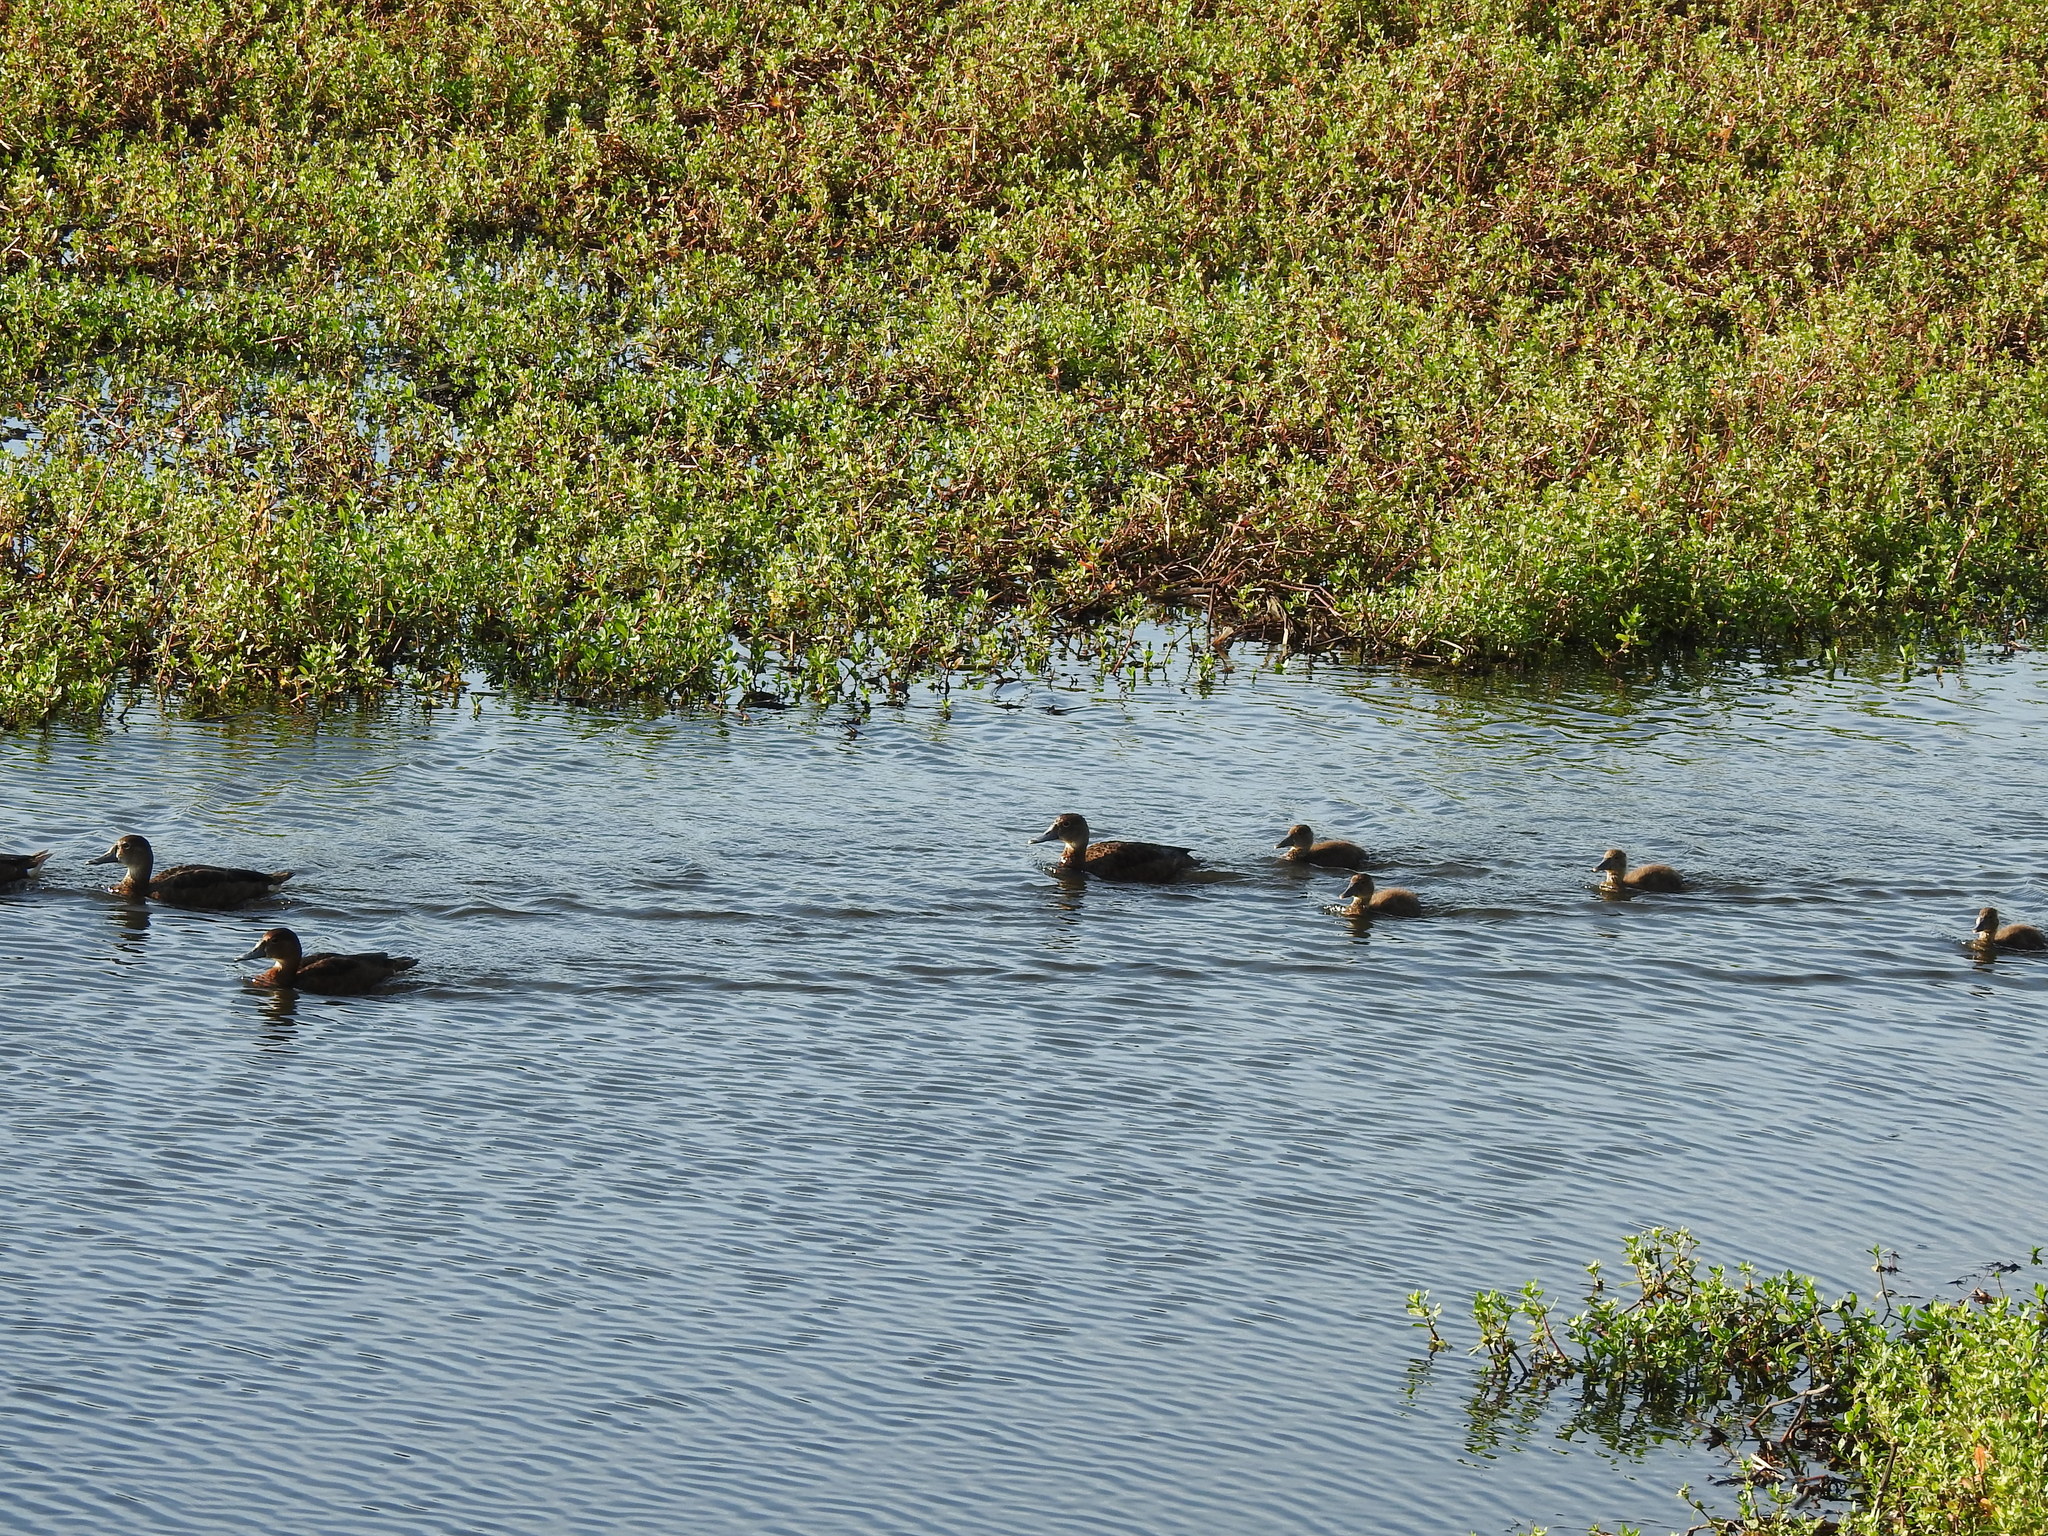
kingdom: Animalia
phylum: Chordata
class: Aves
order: Anseriformes
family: Anatidae
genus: Netta
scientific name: Netta peposaca
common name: Rosy-billed pochard
